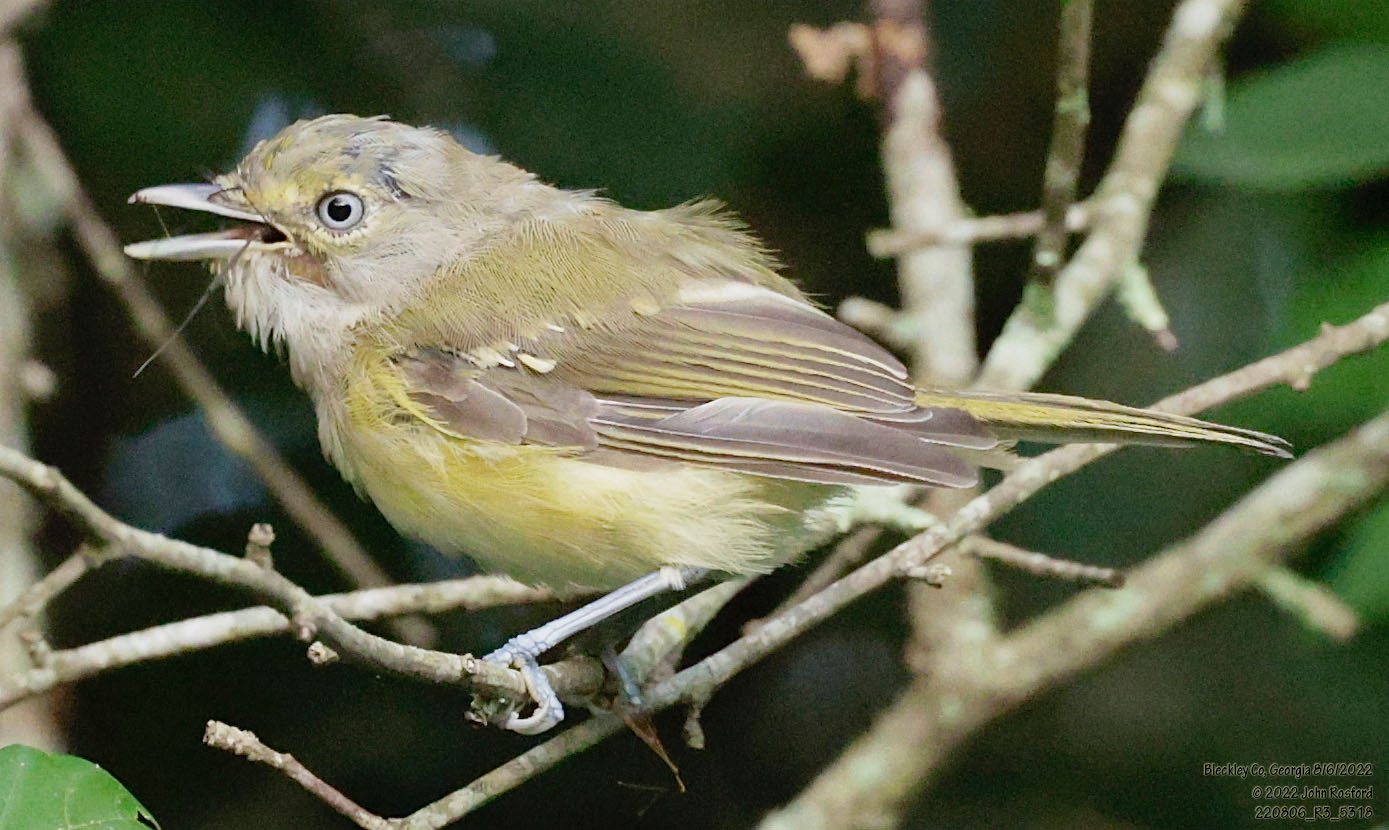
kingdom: Animalia
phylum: Chordata
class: Aves
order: Passeriformes
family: Vireonidae
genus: Vireo
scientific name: Vireo griseus
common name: White-eyed vireo
